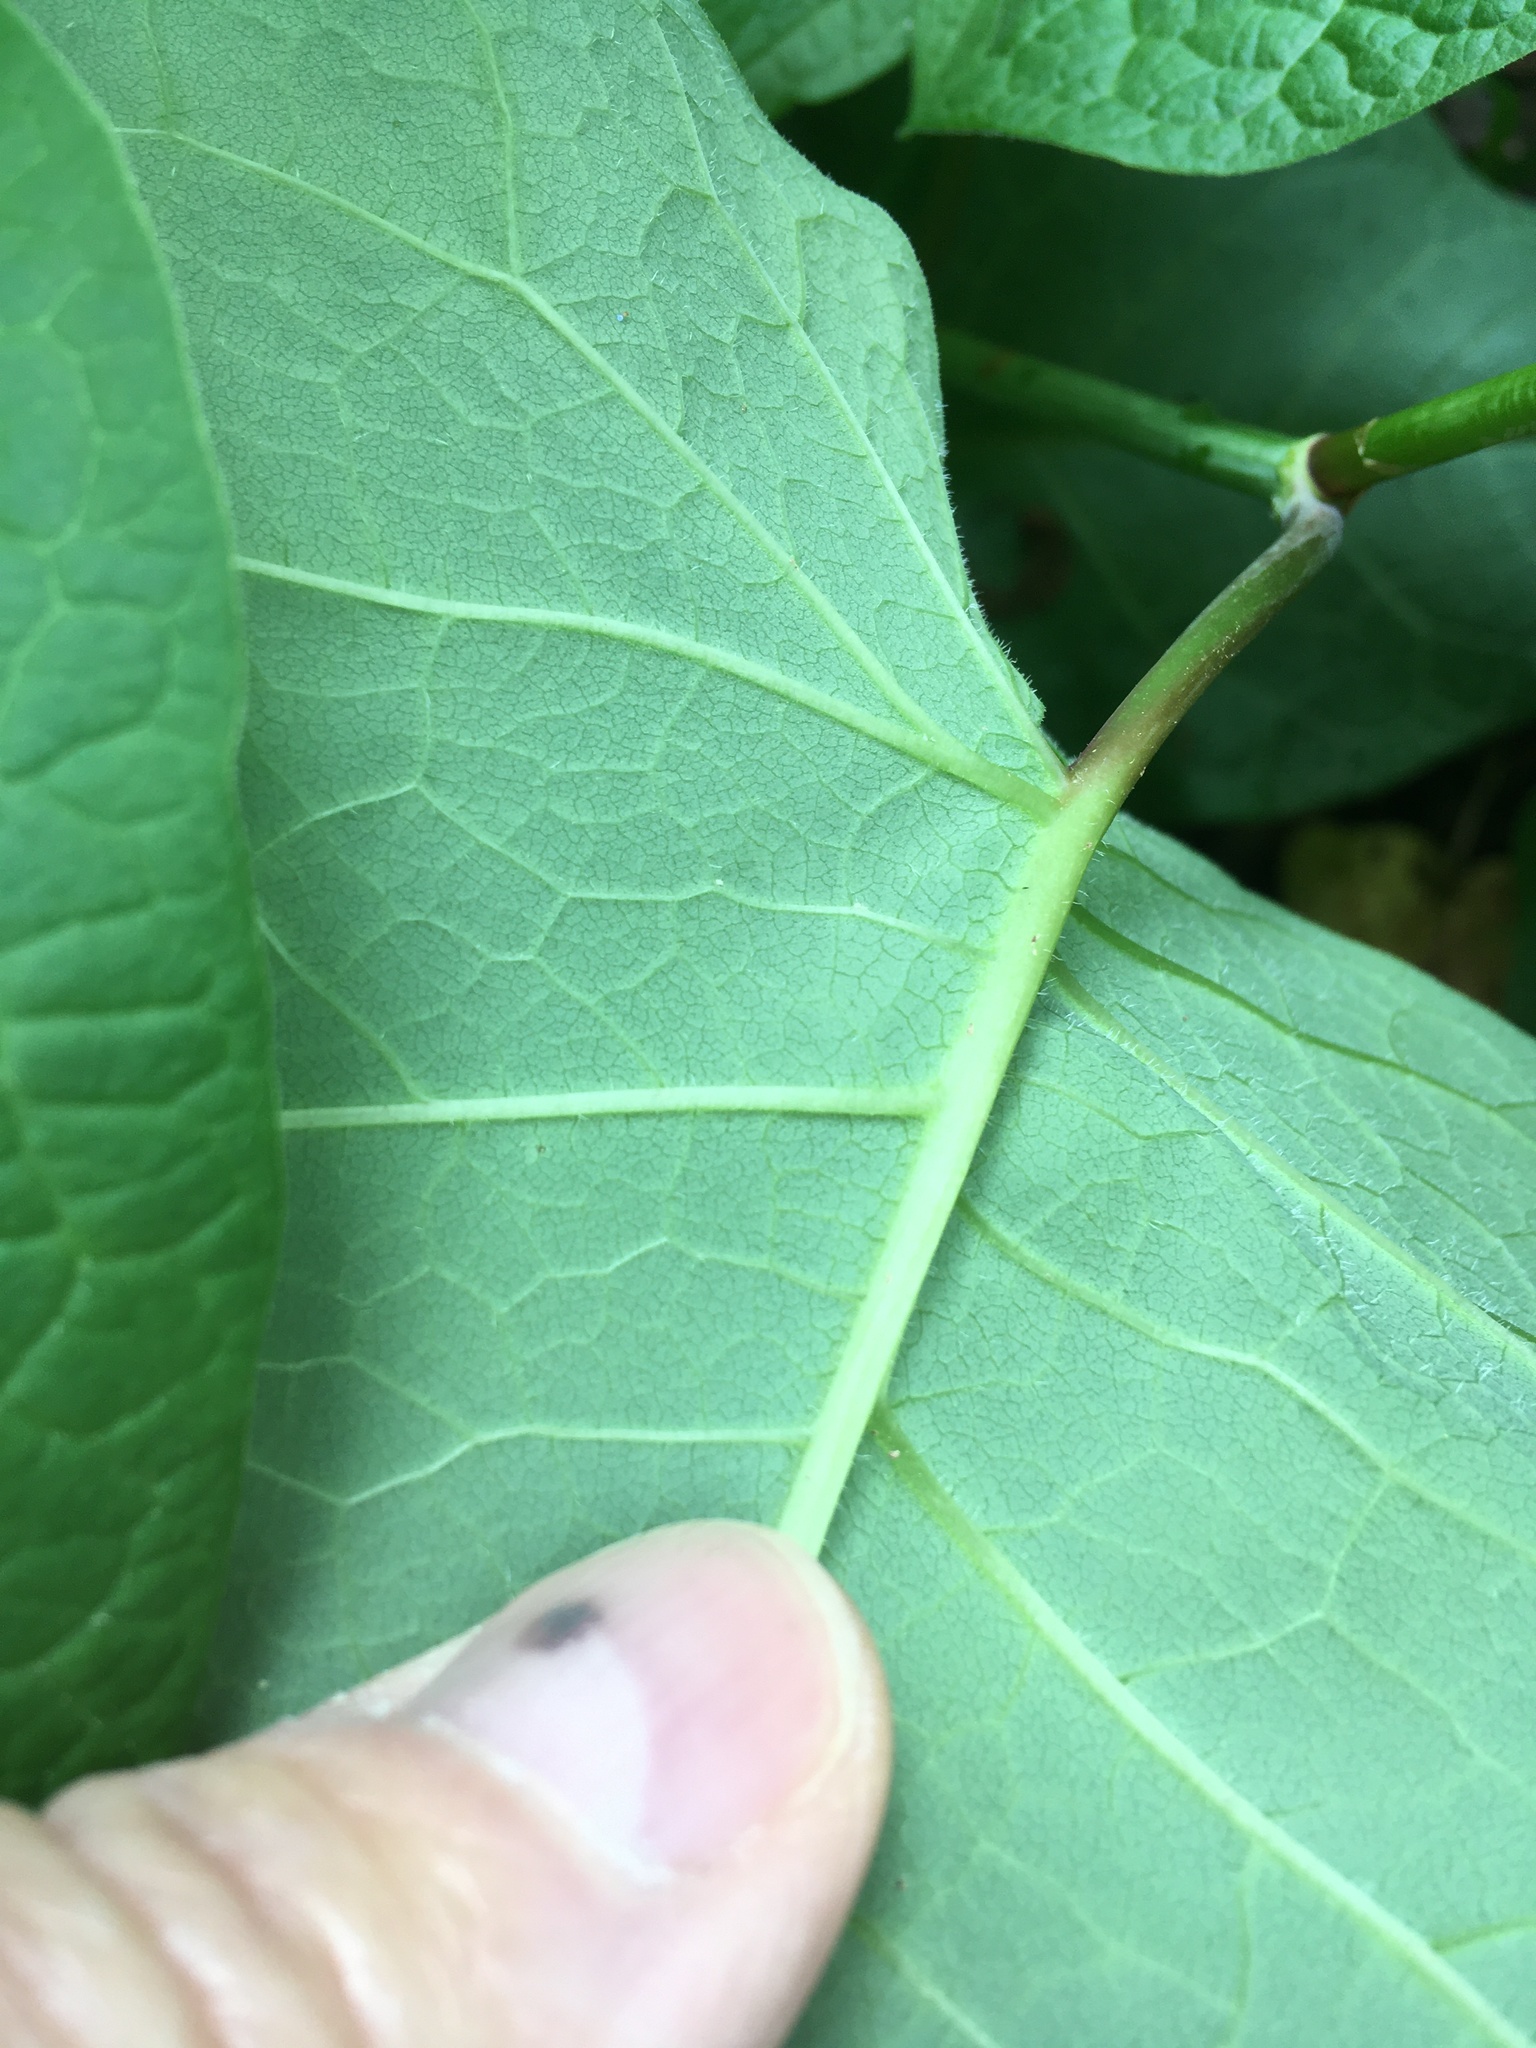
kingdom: Plantae
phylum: Tracheophyta
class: Magnoliopsida
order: Caryophyllales
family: Polygonaceae
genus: Reynoutria
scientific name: Reynoutria sachalinensis
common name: Giant knotweed
